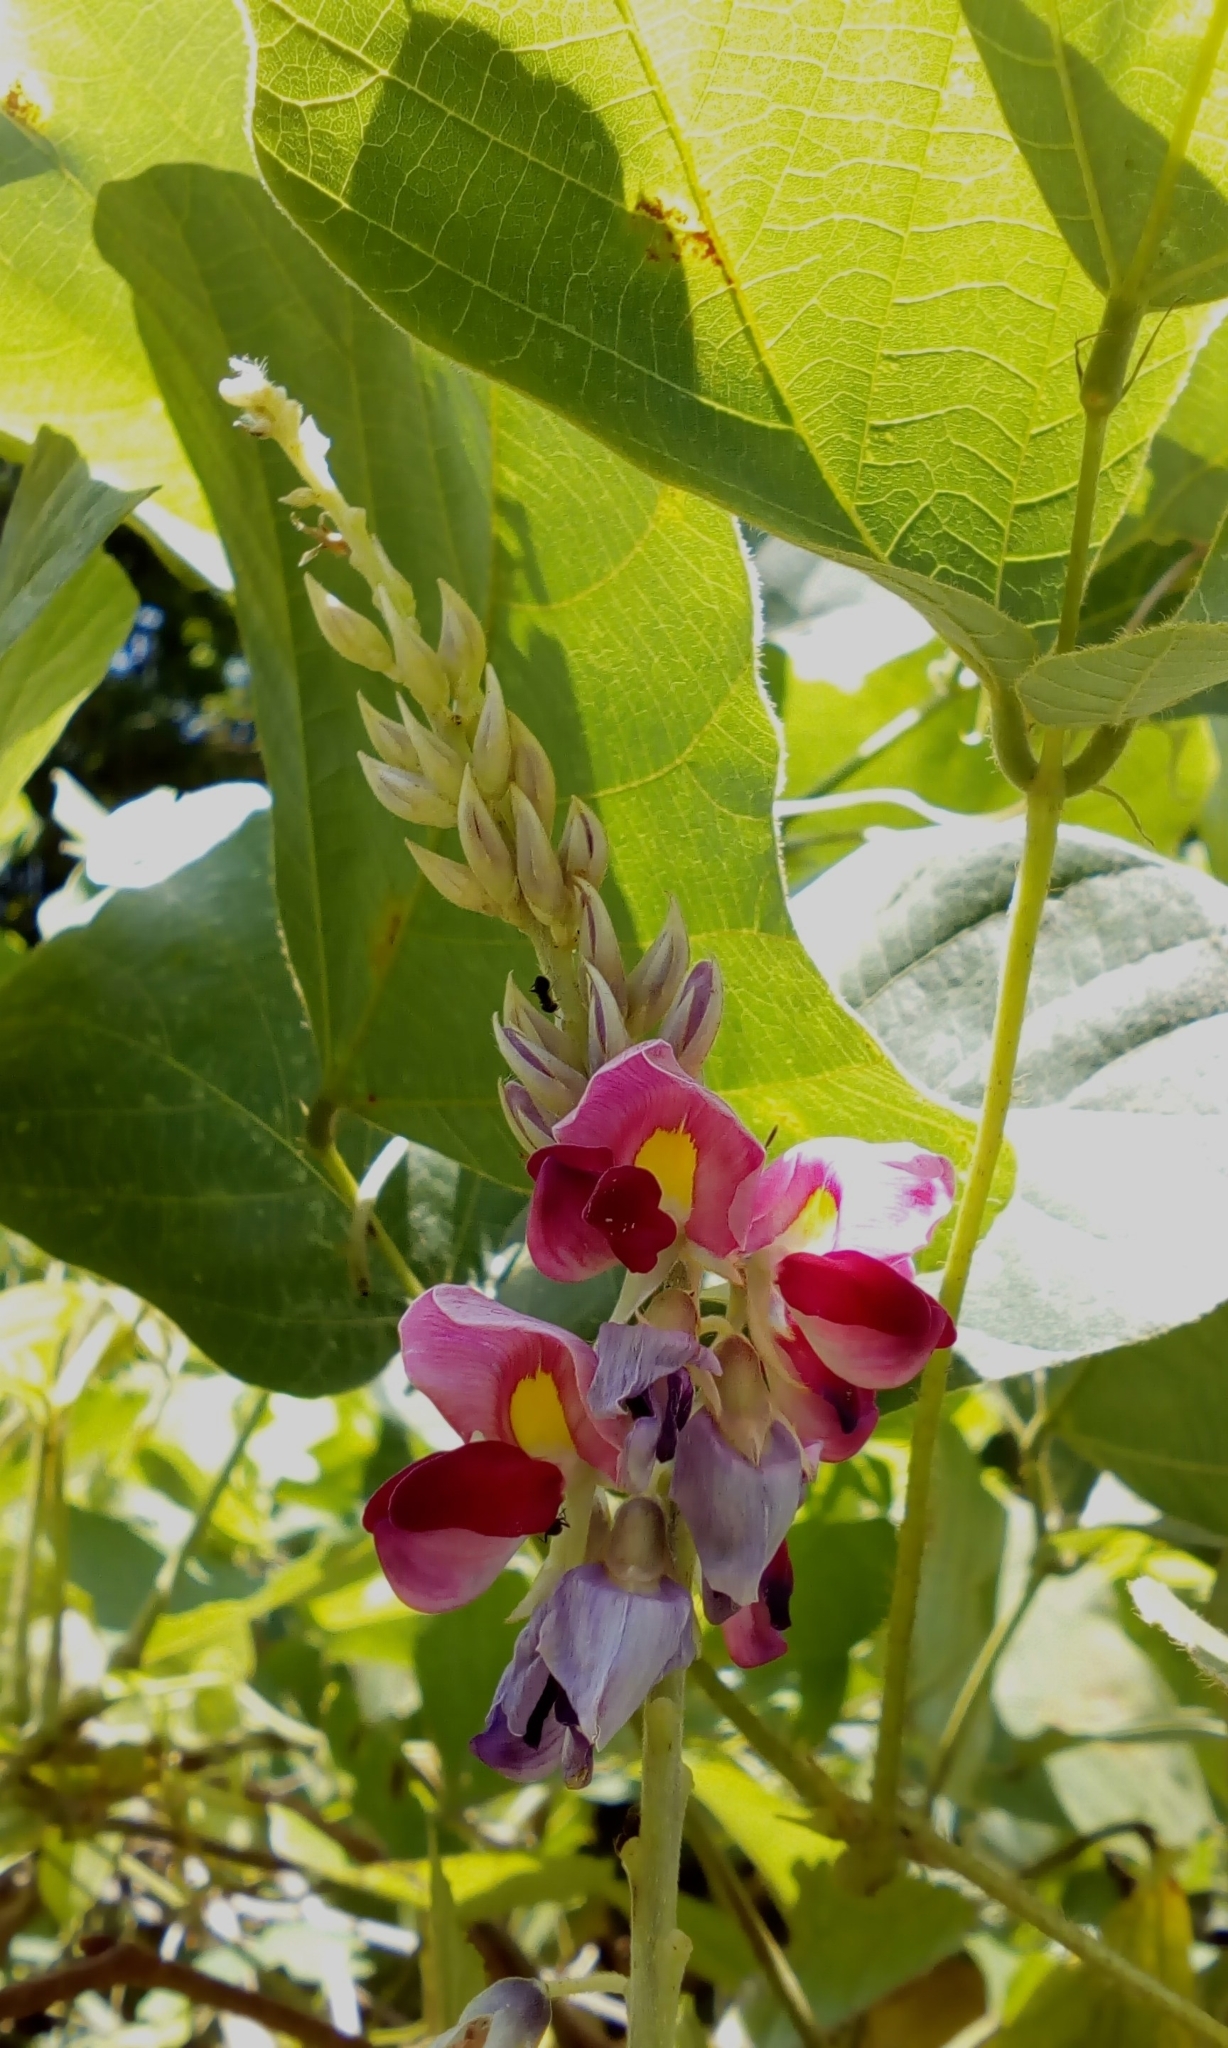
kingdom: Plantae
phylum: Tracheophyta
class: Magnoliopsida
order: Fabales
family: Fabaceae
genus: Pueraria
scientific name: Pueraria montana
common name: Kudzu
